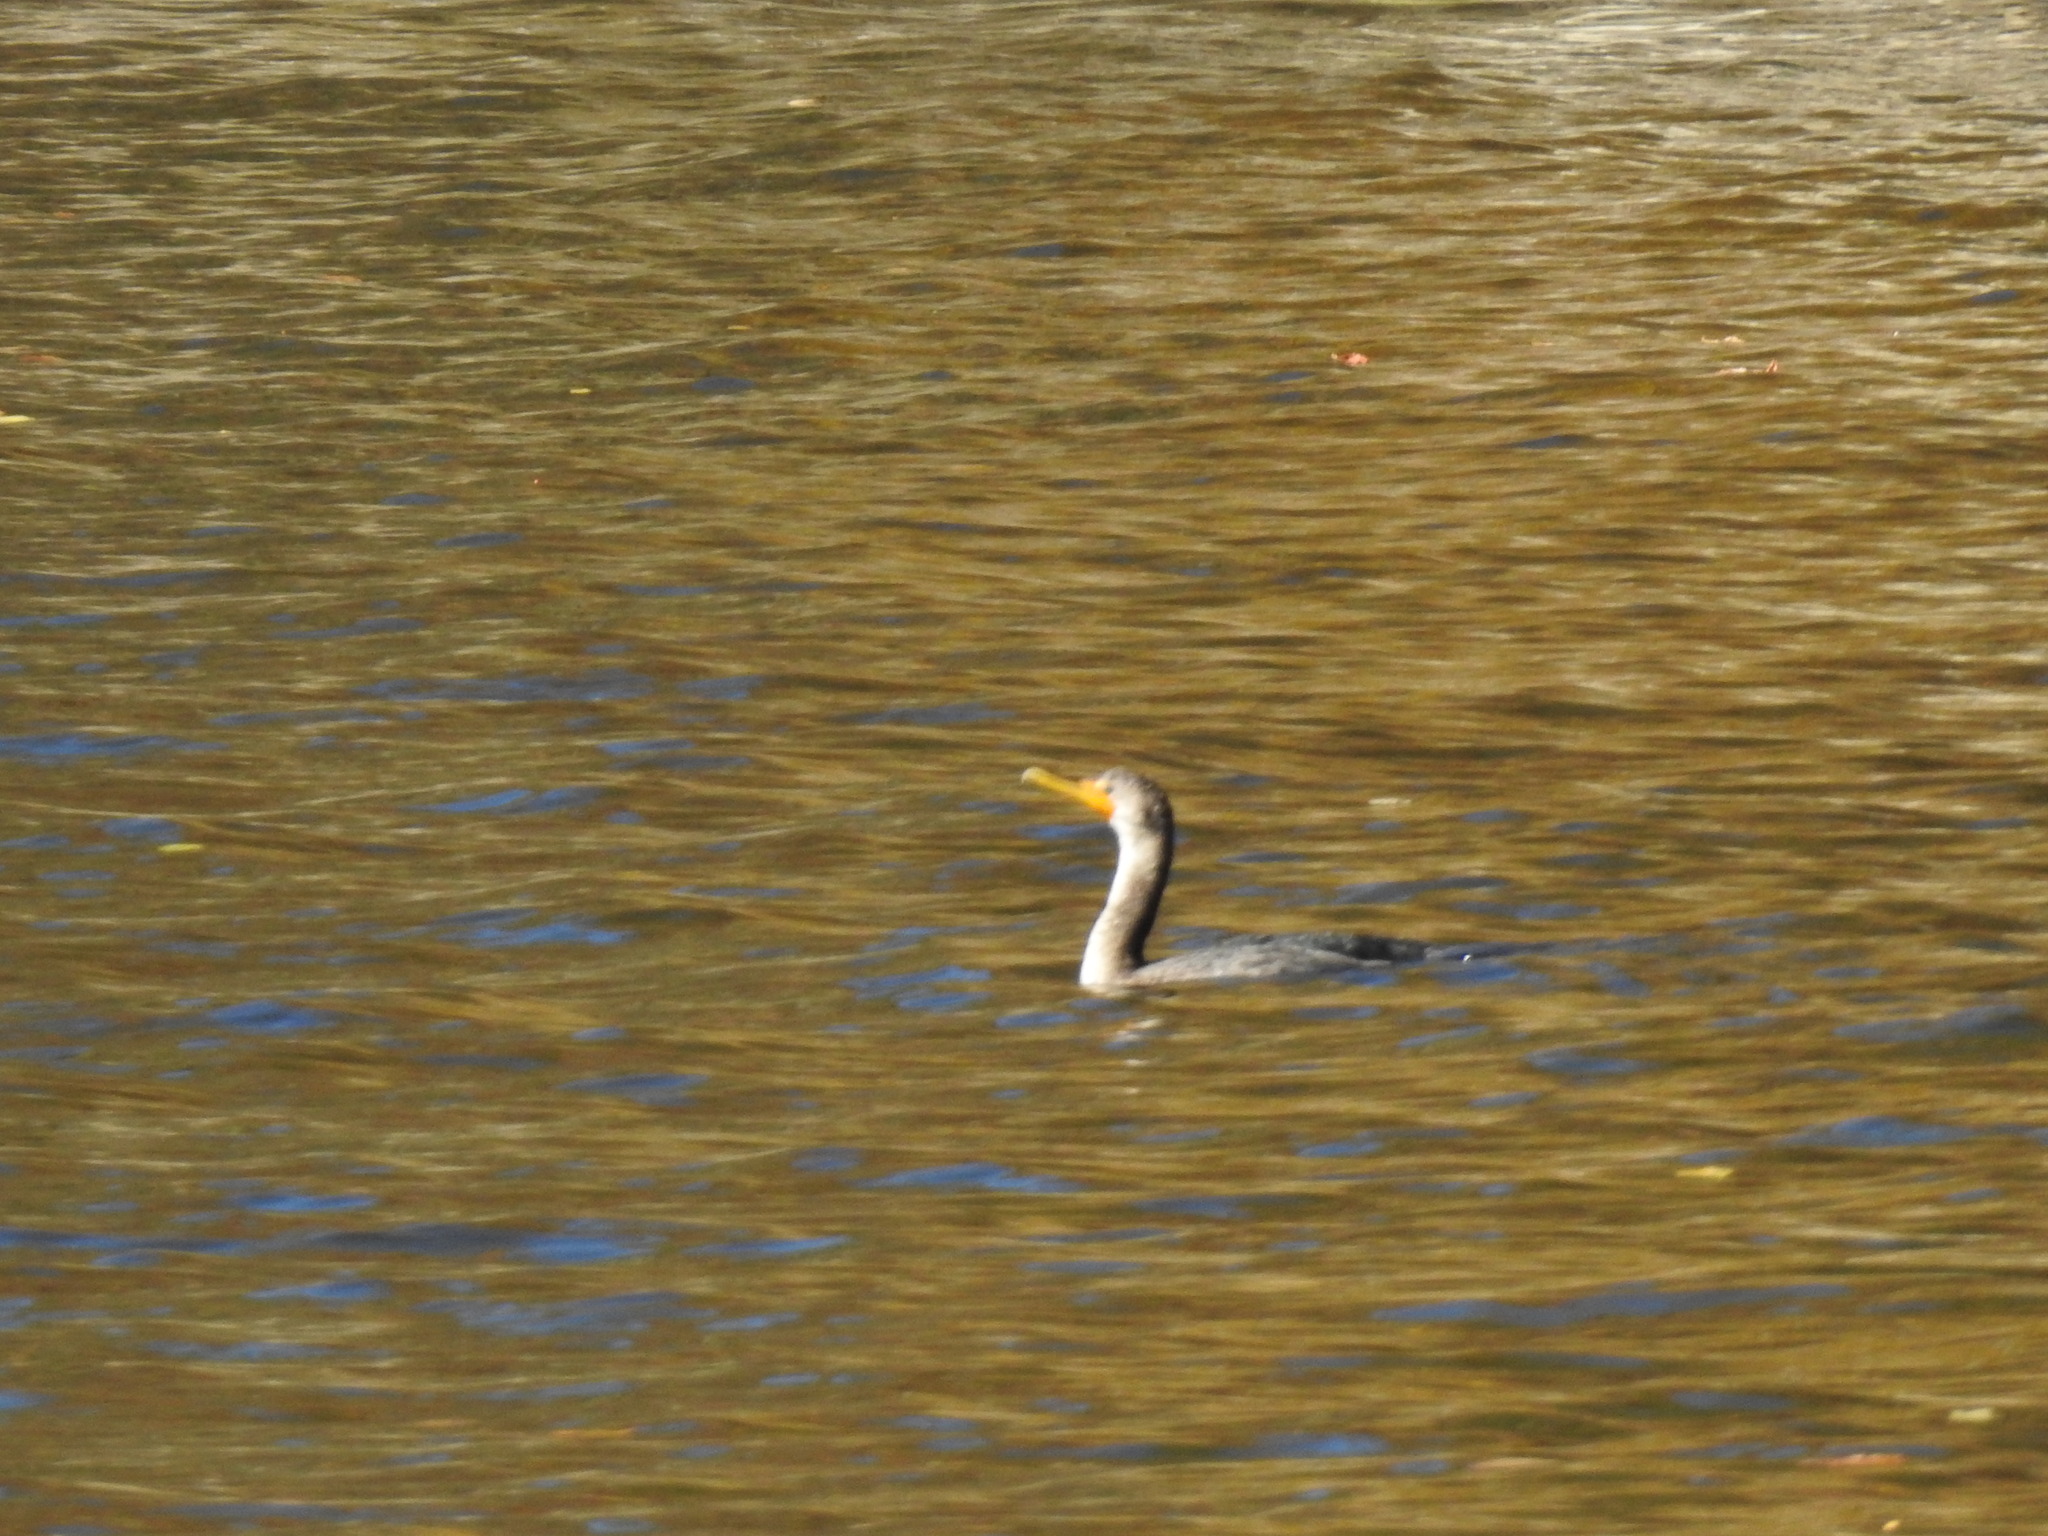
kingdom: Animalia
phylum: Chordata
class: Aves
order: Suliformes
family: Phalacrocoracidae
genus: Phalacrocorax
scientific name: Phalacrocorax auritus
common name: Double-crested cormorant
